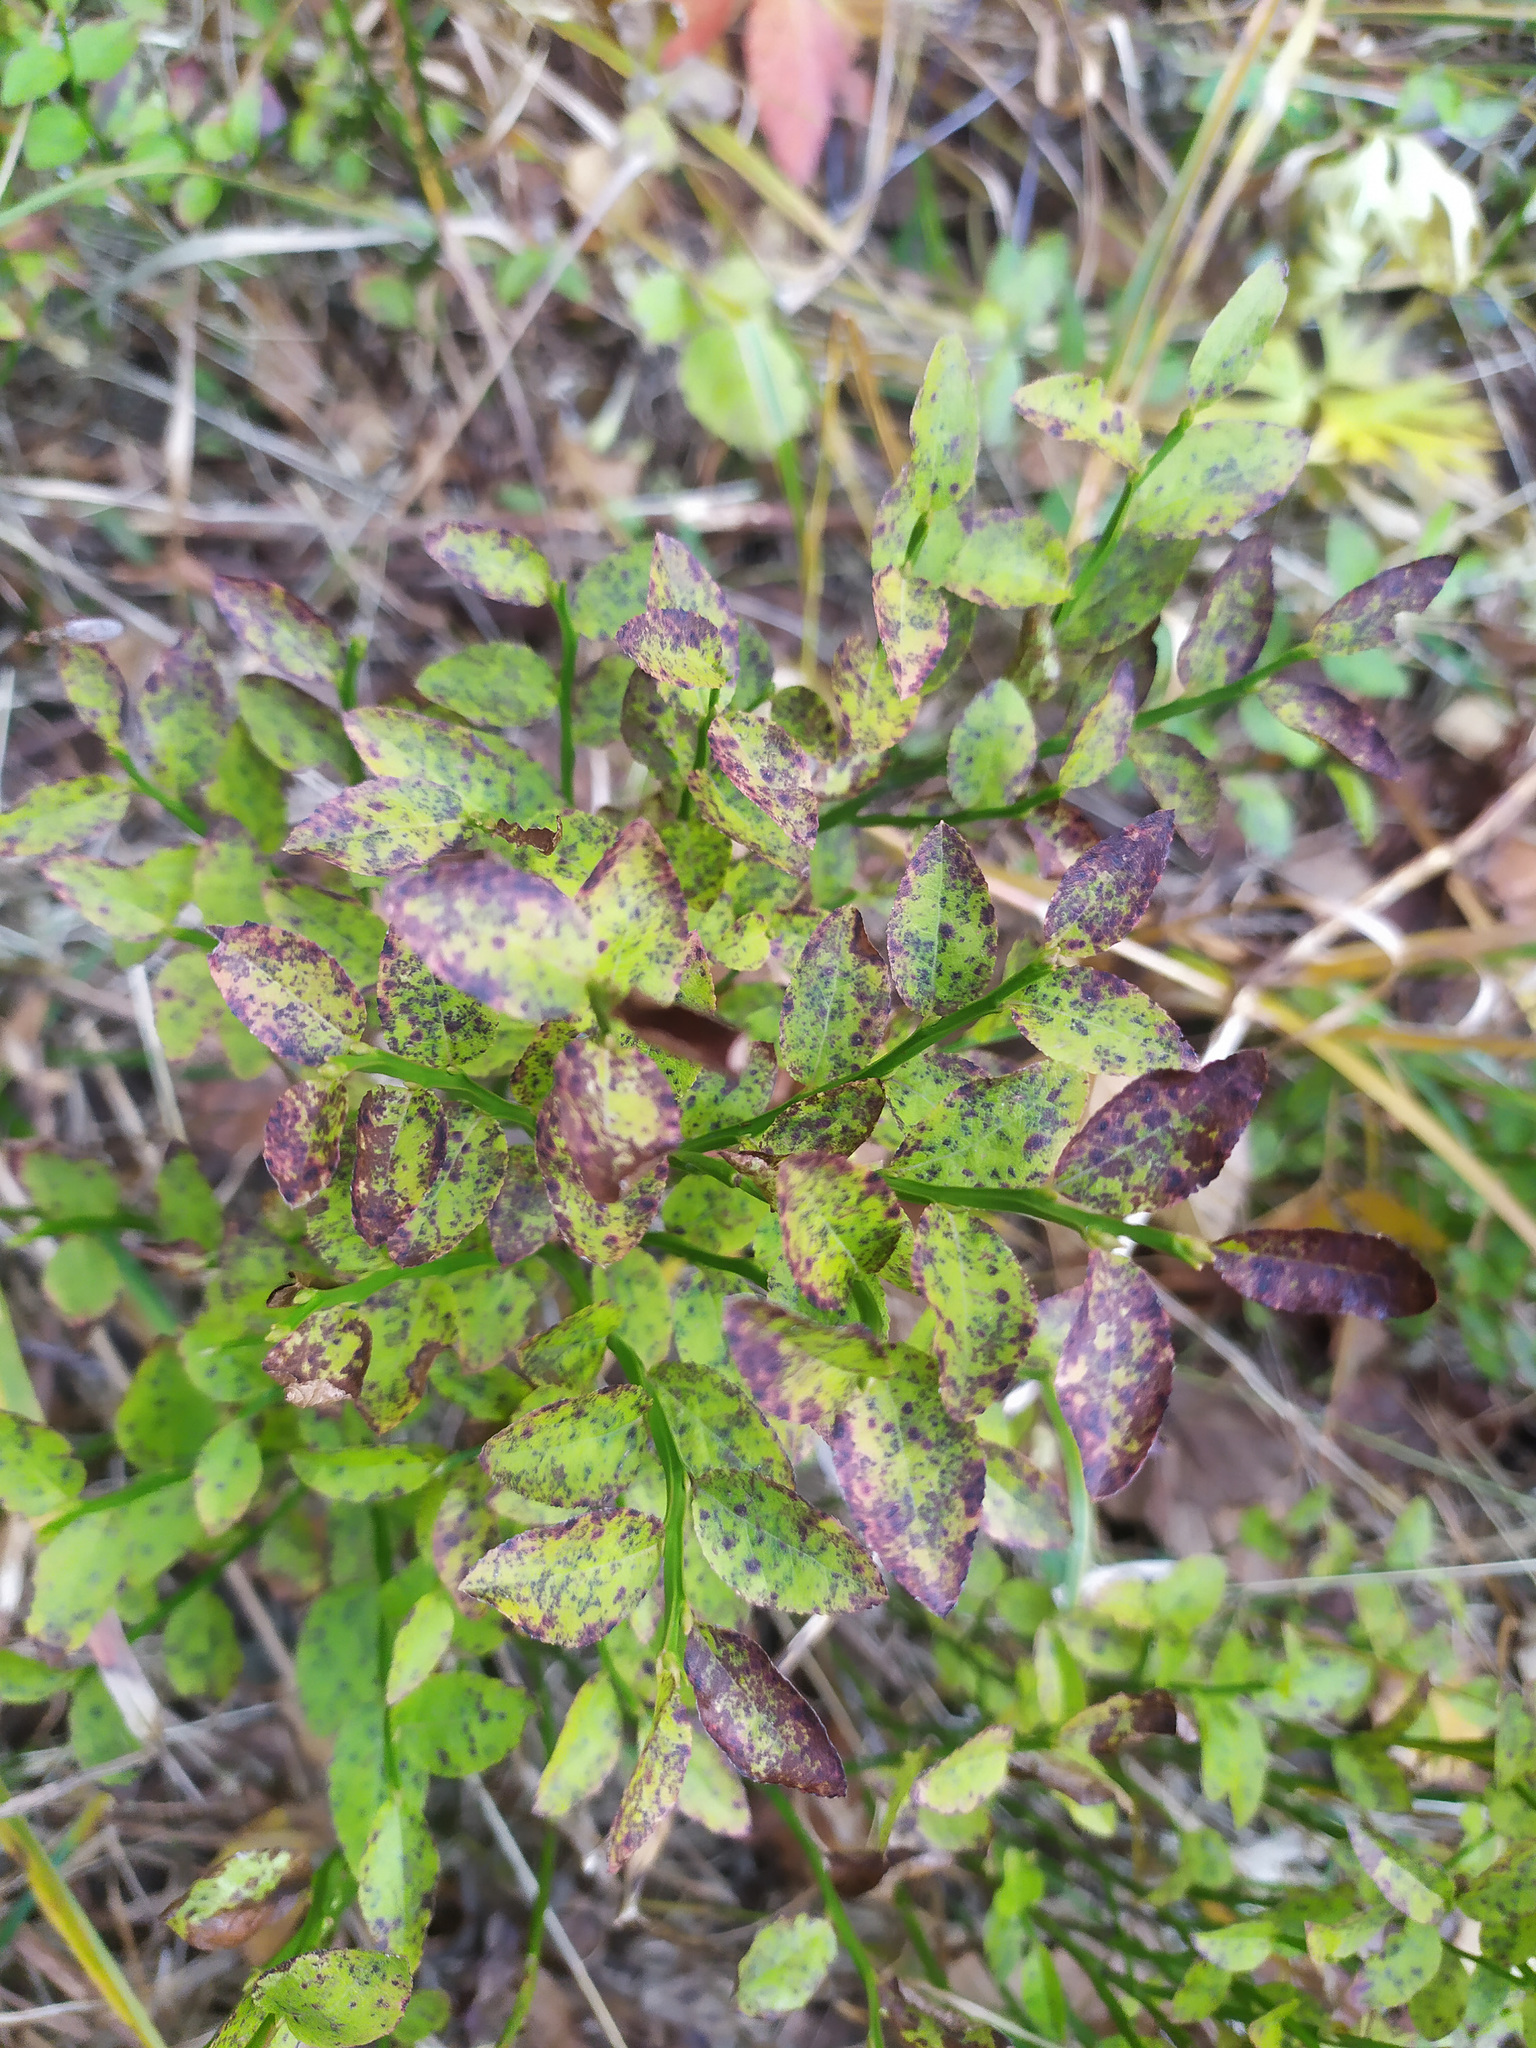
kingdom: Plantae
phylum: Tracheophyta
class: Magnoliopsida
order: Ericales
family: Ericaceae
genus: Vaccinium
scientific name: Vaccinium myrtillus
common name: Bilberry
